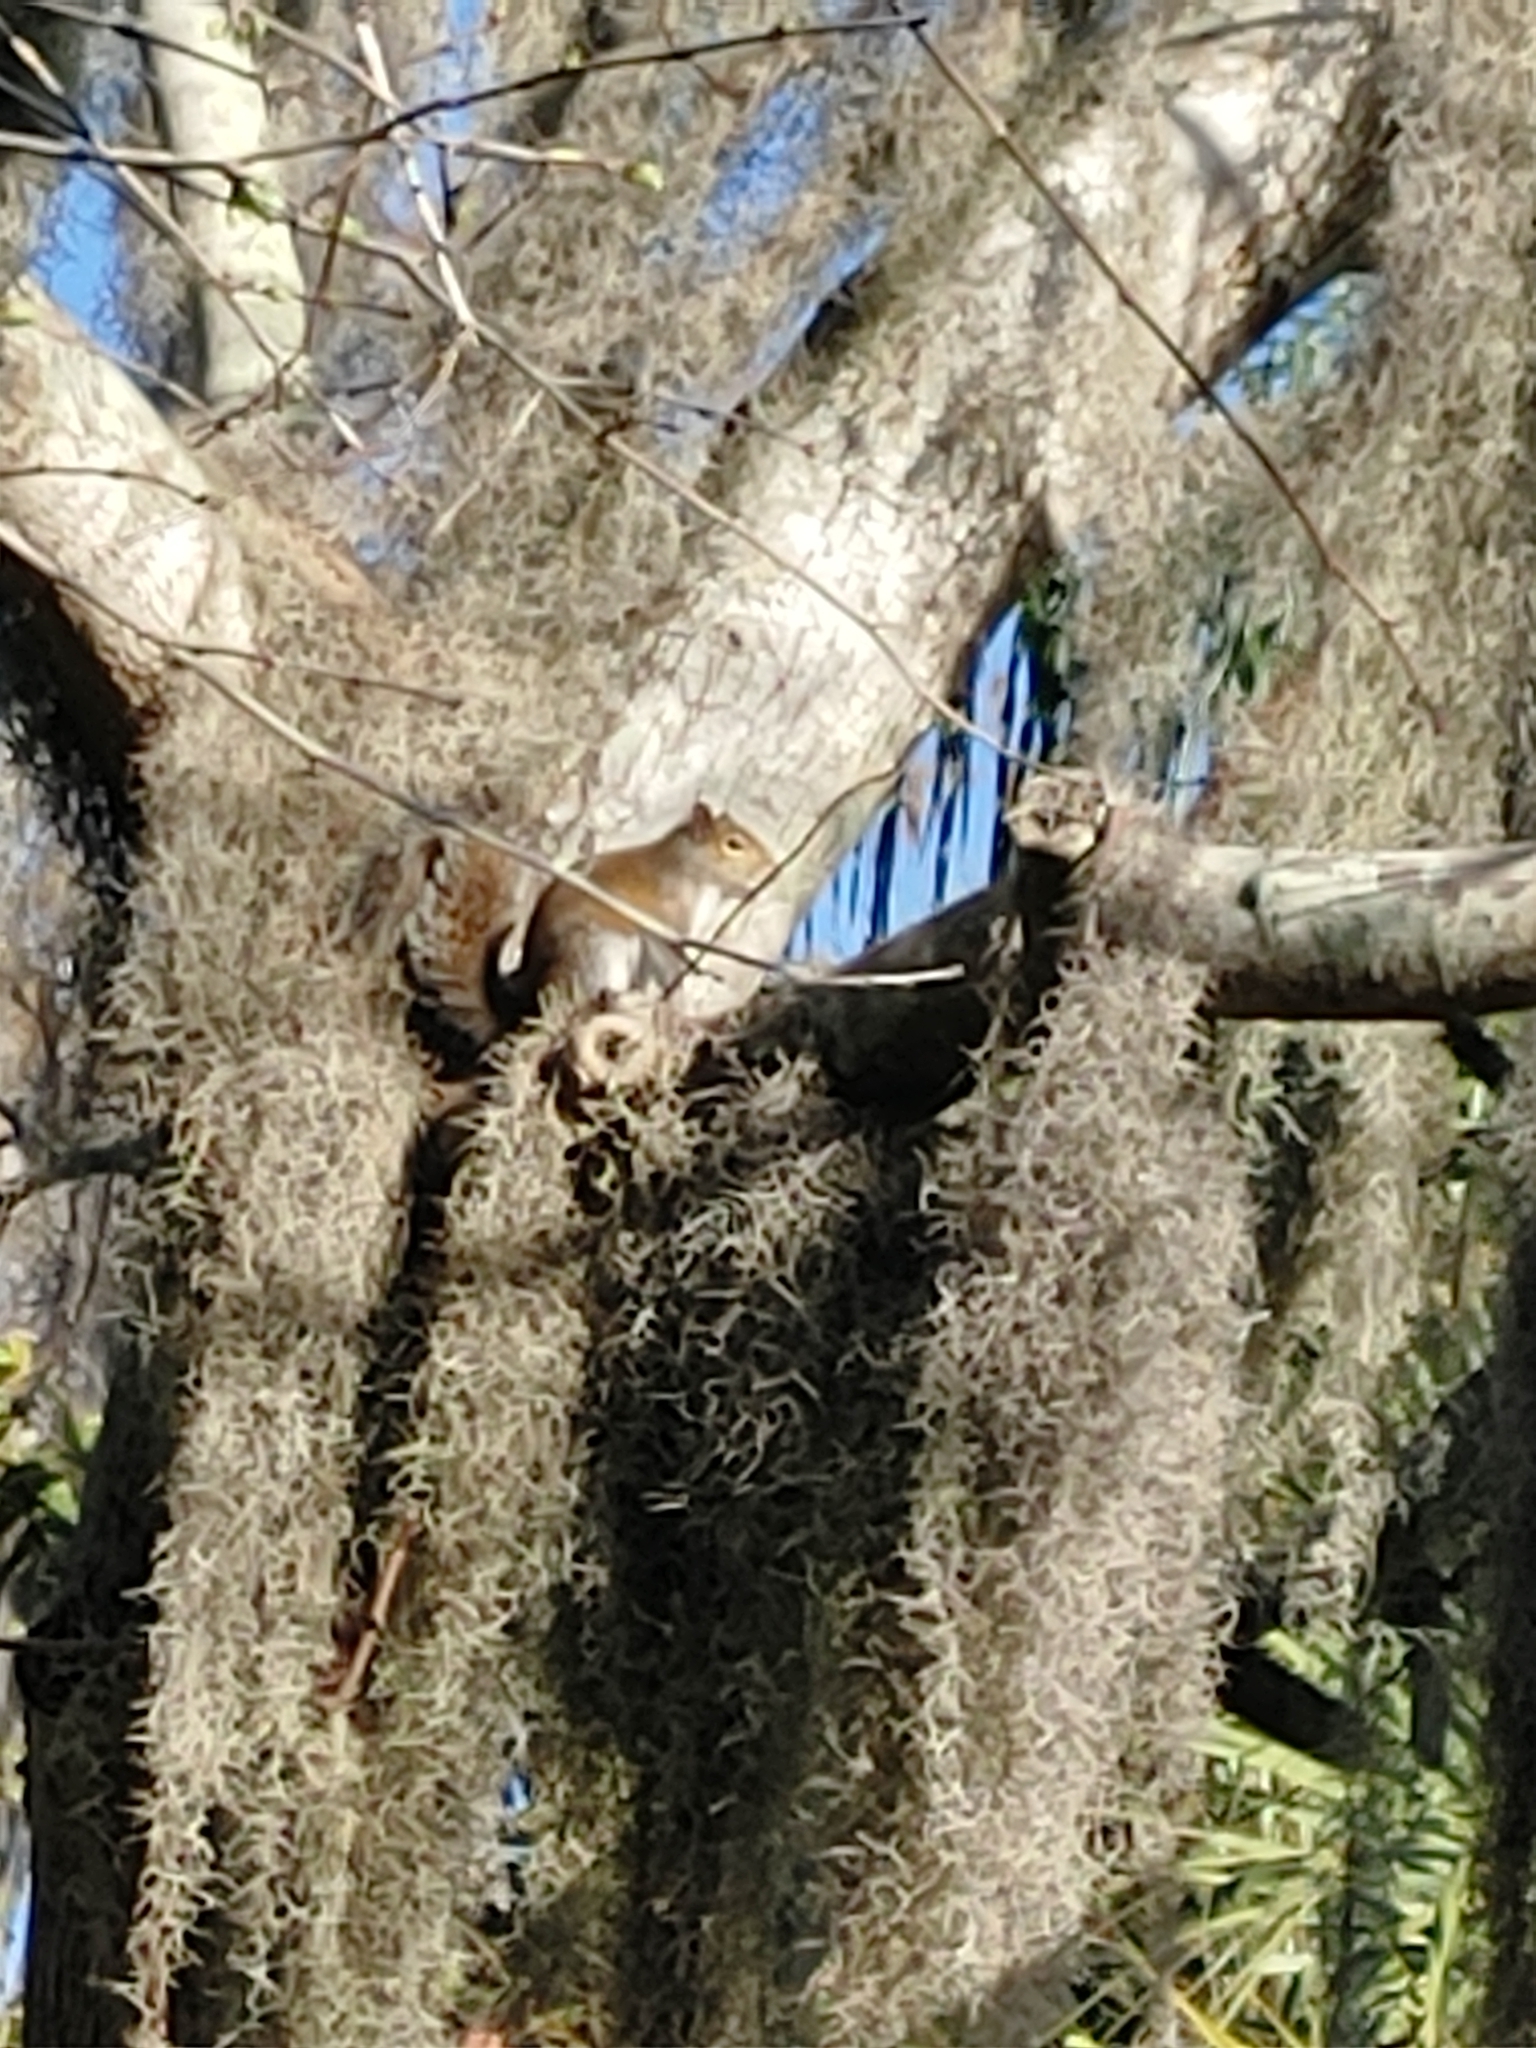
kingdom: Animalia
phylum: Chordata
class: Mammalia
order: Rodentia
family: Sciuridae
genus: Sciurus
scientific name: Sciurus carolinensis
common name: Eastern gray squirrel
